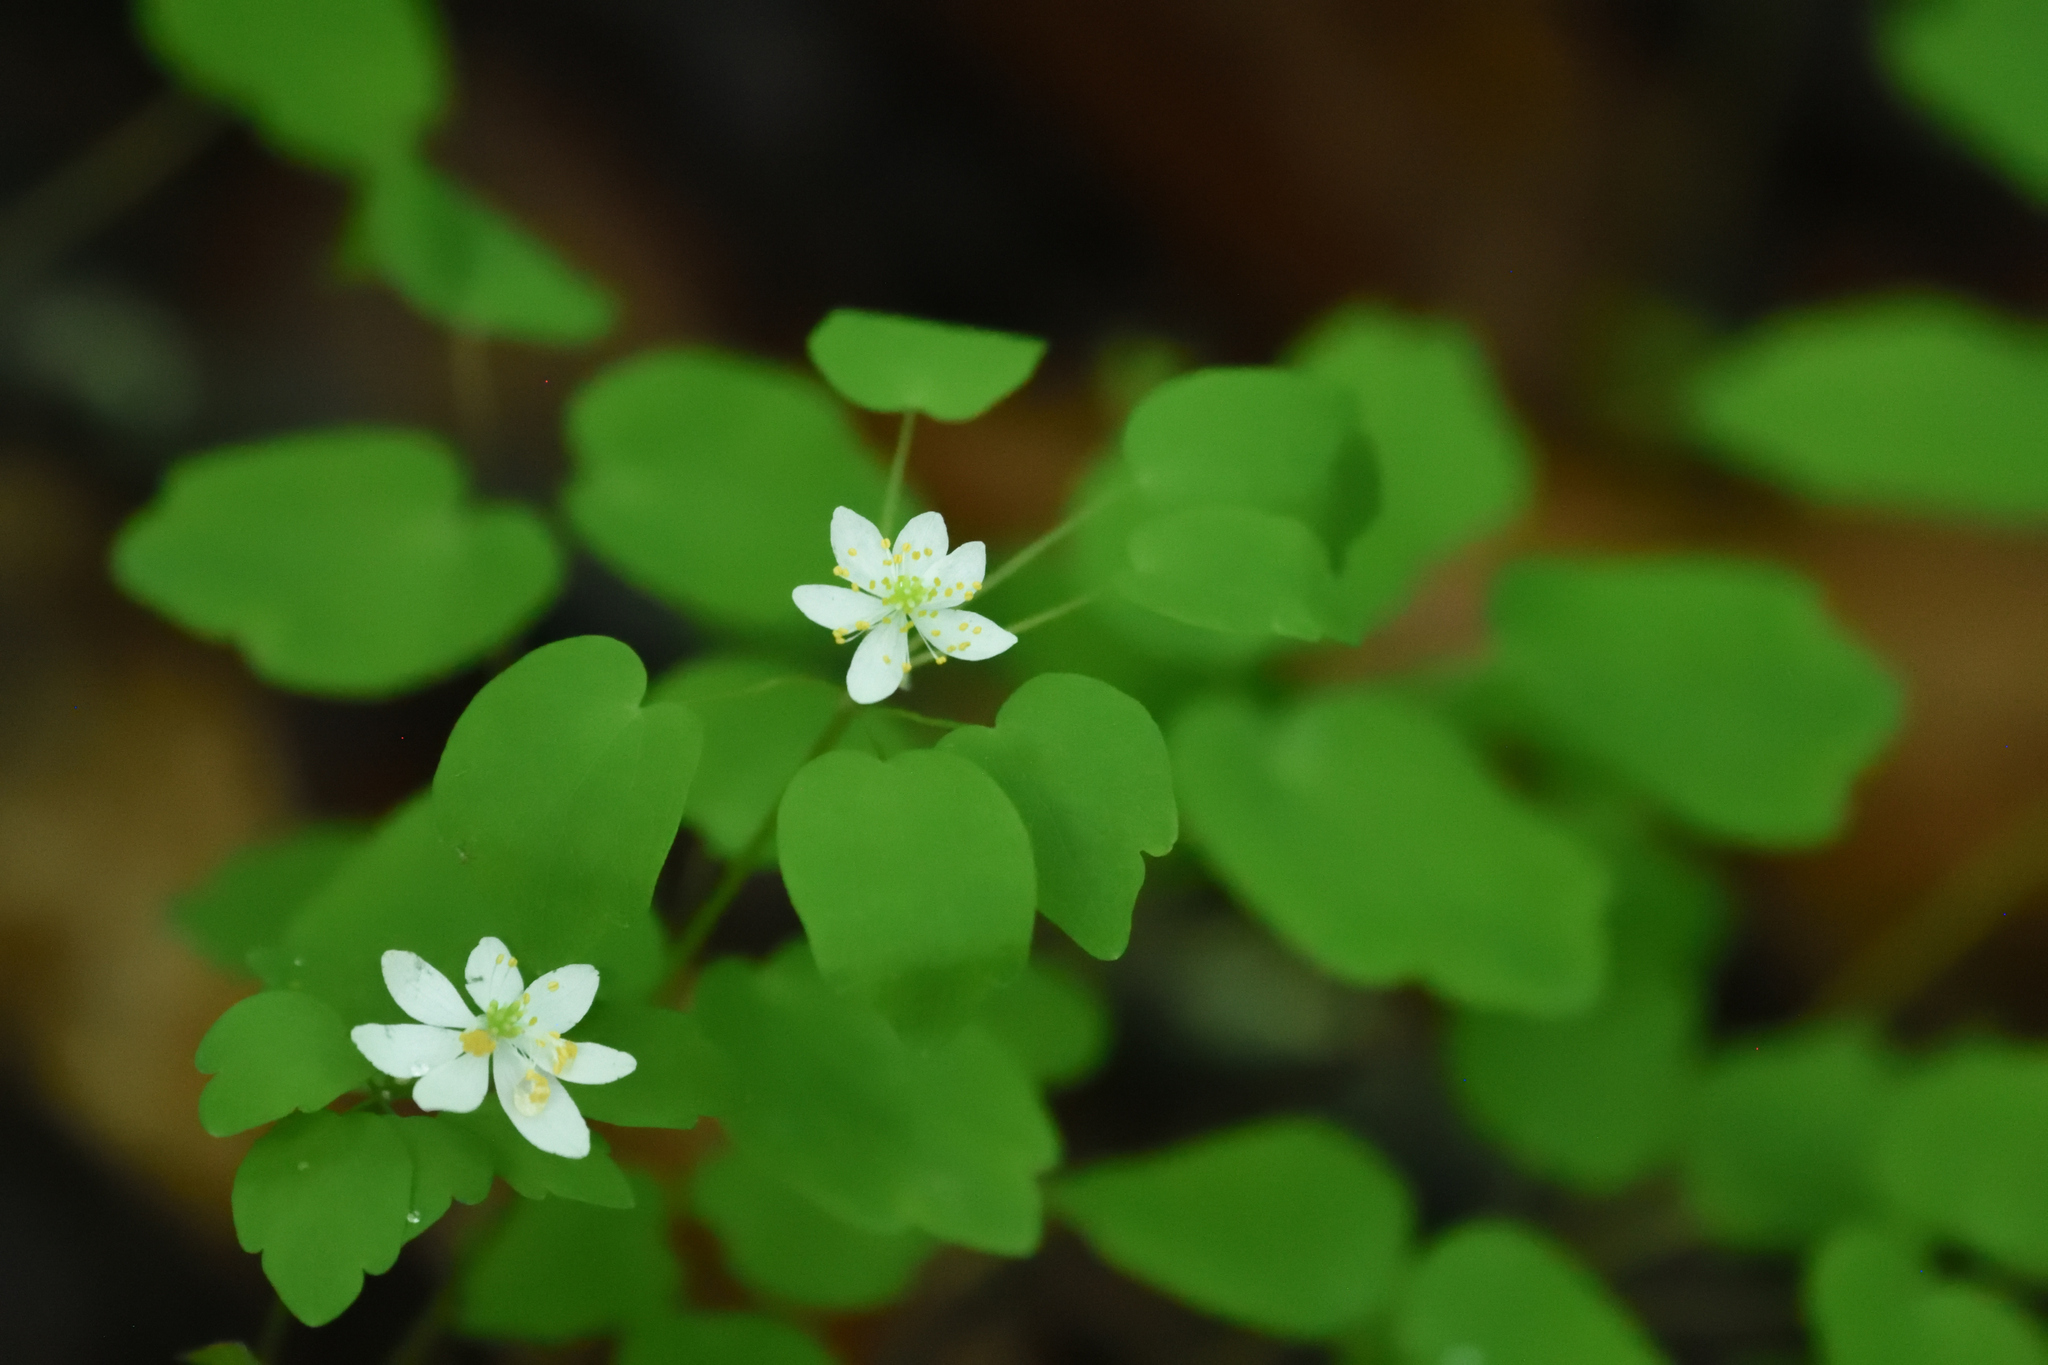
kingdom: Plantae
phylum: Tracheophyta
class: Magnoliopsida
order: Ranunculales
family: Ranunculaceae
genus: Thalictrum
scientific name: Thalictrum thalictroides
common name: Rue-anemone
